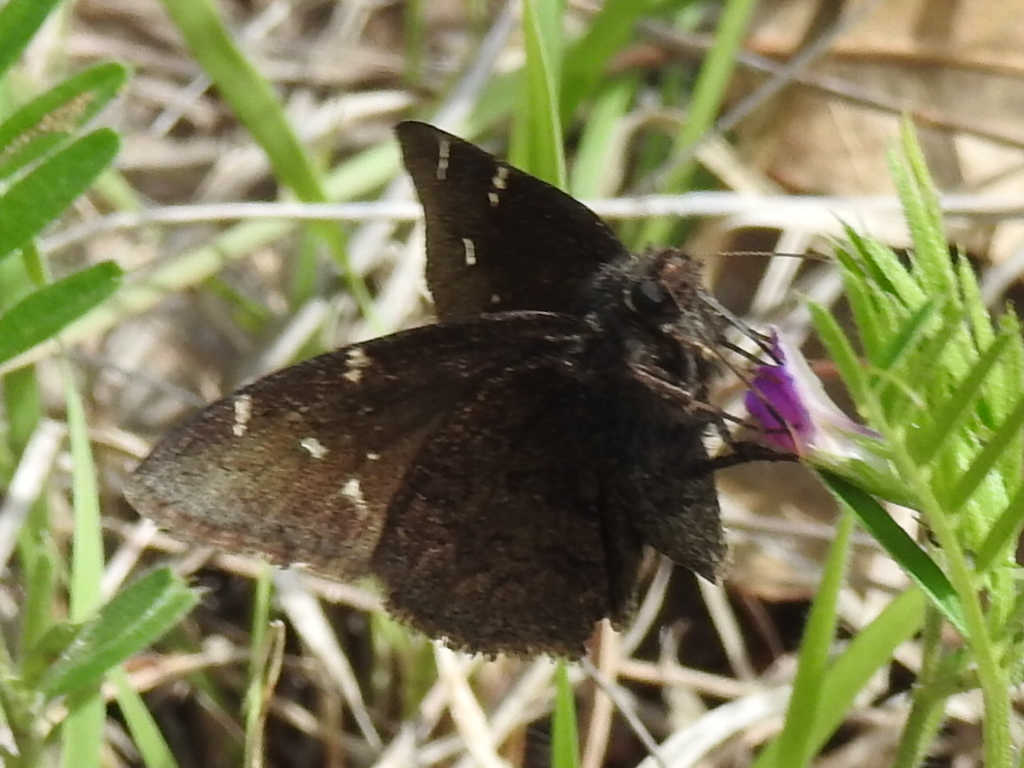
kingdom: Animalia
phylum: Arthropoda
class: Insecta
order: Lepidoptera
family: Hesperiidae
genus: Thorybes
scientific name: Thorybes pylades
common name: Northern cloudywing
